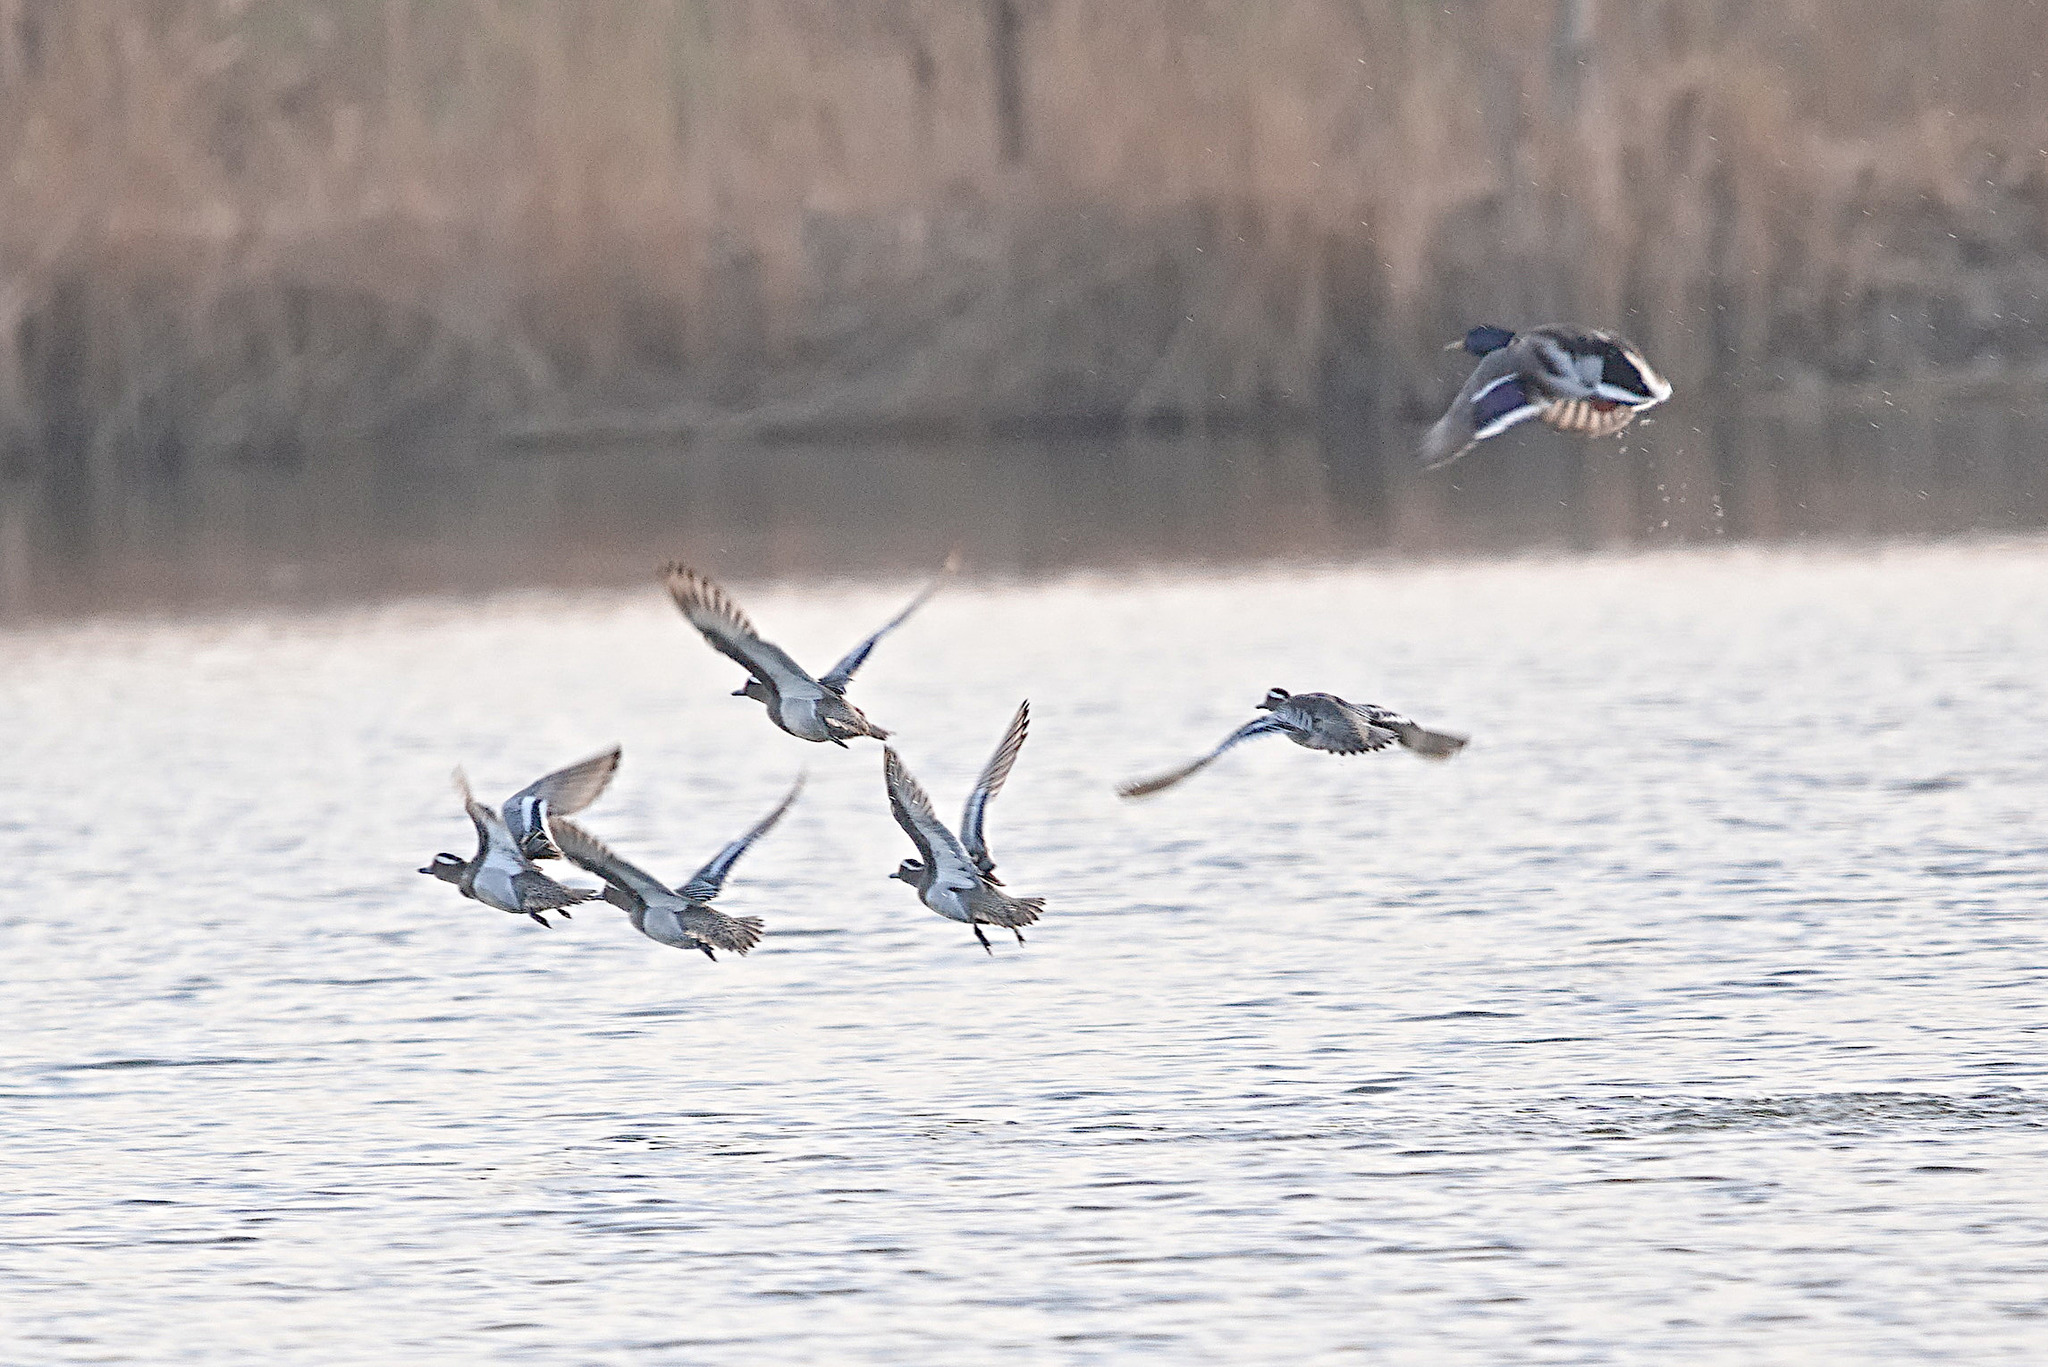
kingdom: Animalia
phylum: Chordata
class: Aves
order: Anseriformes
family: Anatidae
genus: Spatula
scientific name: Spatula querquedula
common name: Garganey
